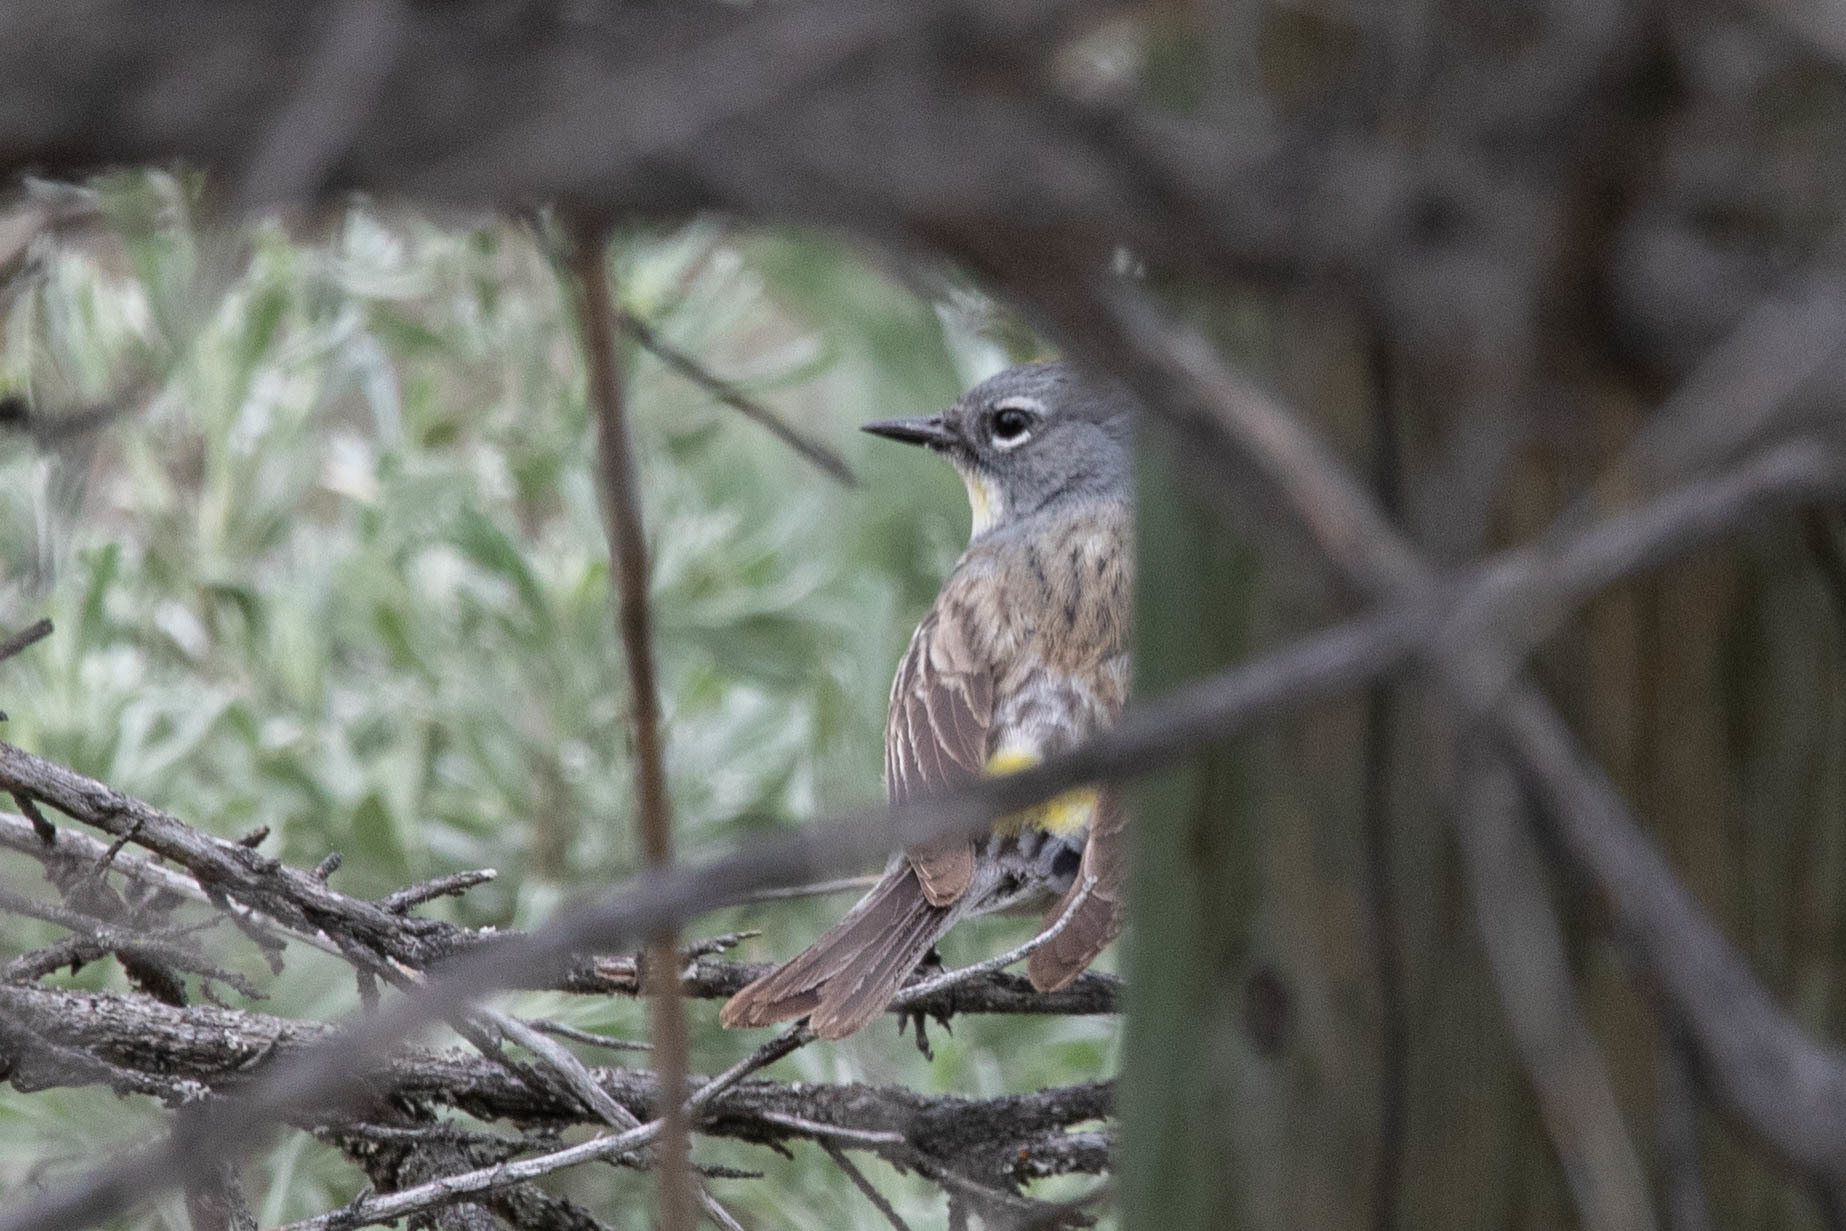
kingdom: Animalia
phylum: Chordata
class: Aves
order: Passeriformes
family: Parulidae
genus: Setophaga
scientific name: Setophaga coronata
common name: Myrtle warbler
